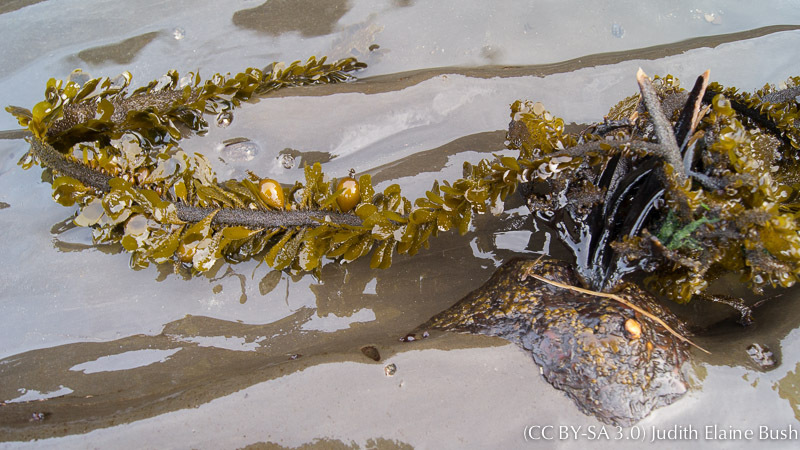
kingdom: Chromista
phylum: Ochrophyta
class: Phaeophyceae
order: Laminariales
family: Lessoniaceae
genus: Egregia
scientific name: Egregia menziesii
